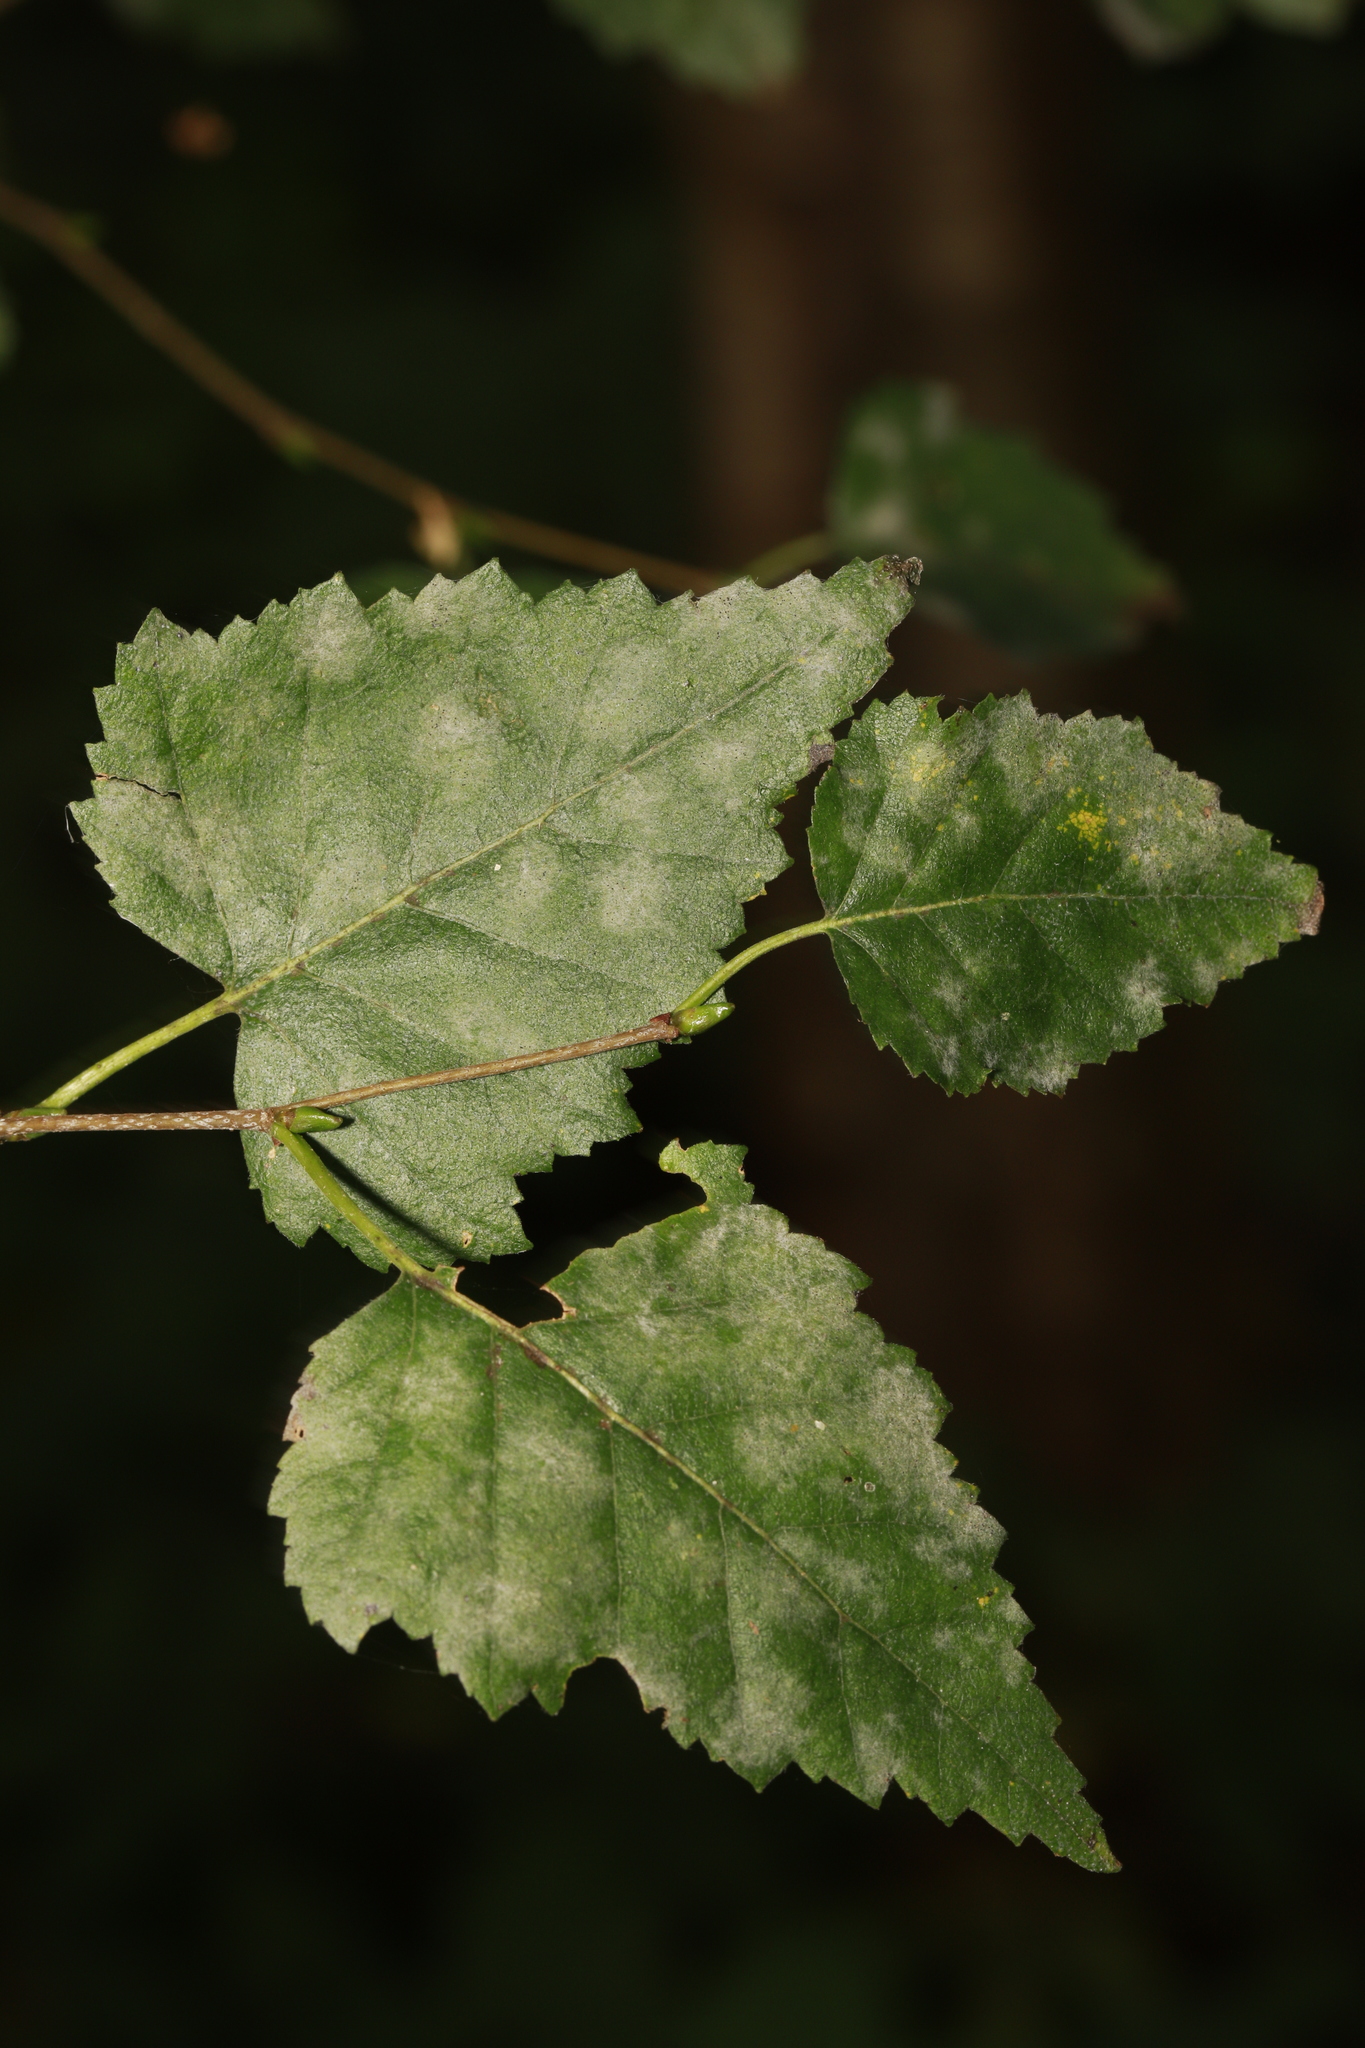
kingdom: Plantae
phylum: Tracheophyta
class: Magnoliopsida
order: Fagales
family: Betulaceae
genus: Betula
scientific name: Betula pubescens
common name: Downy birch
